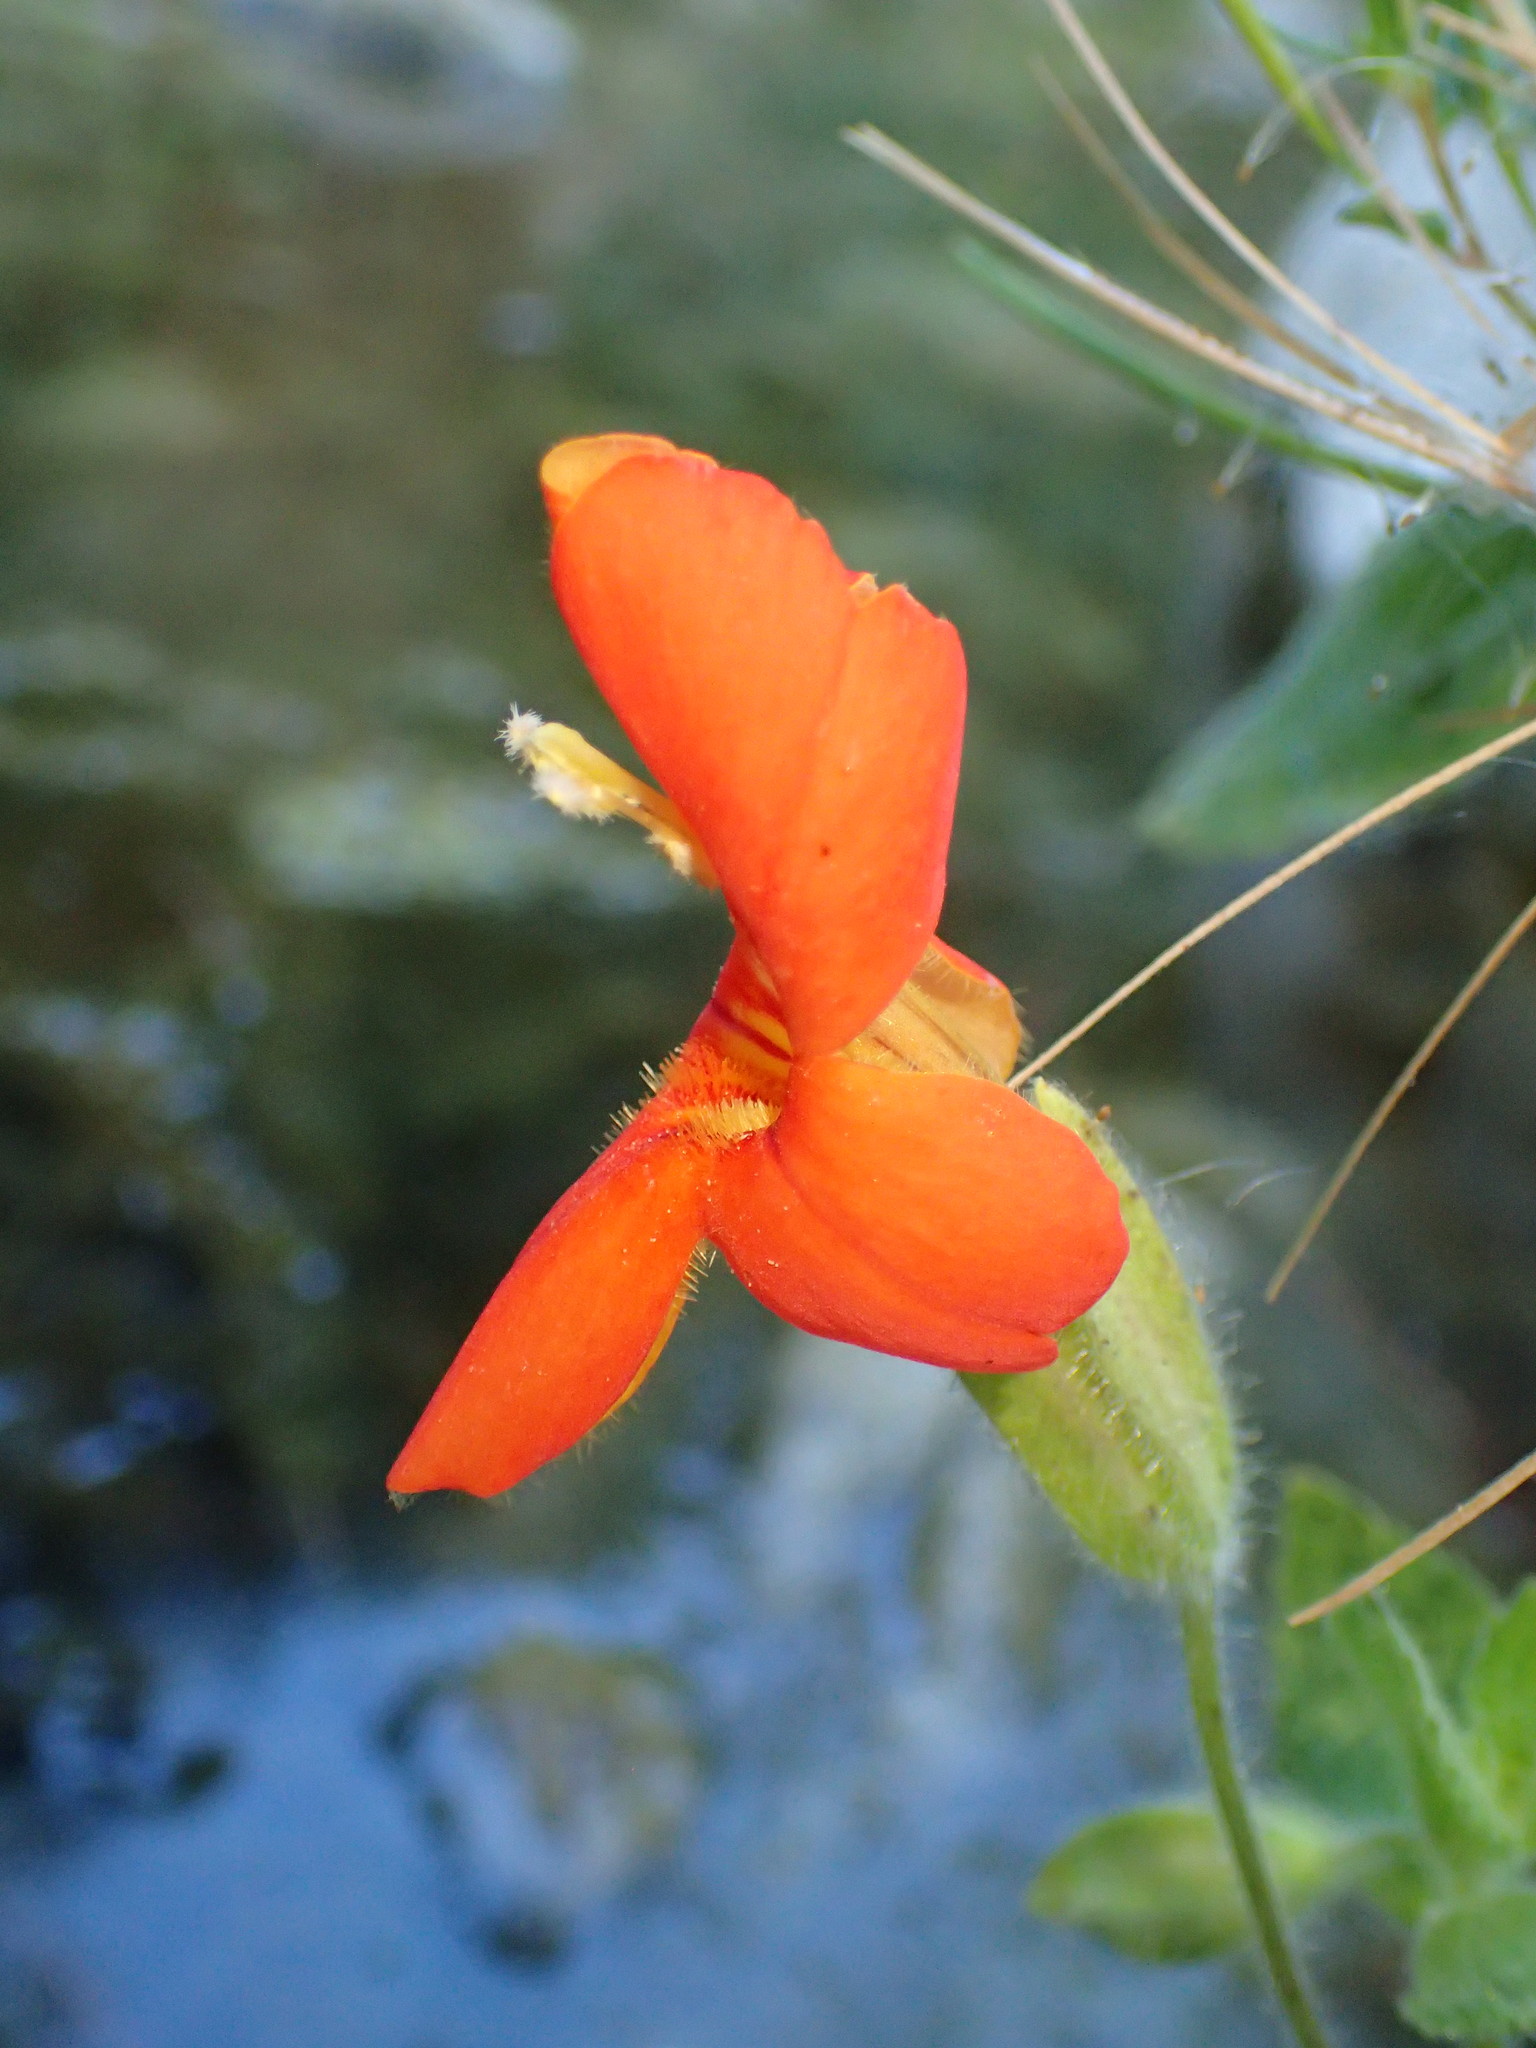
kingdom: Plantae
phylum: Tracheophyta
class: Magnoliopsida
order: Lamiales
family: Phrymaceae
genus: Erythranthe
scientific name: Erythranthe cardinalis
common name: Scarlet monkey-flower
